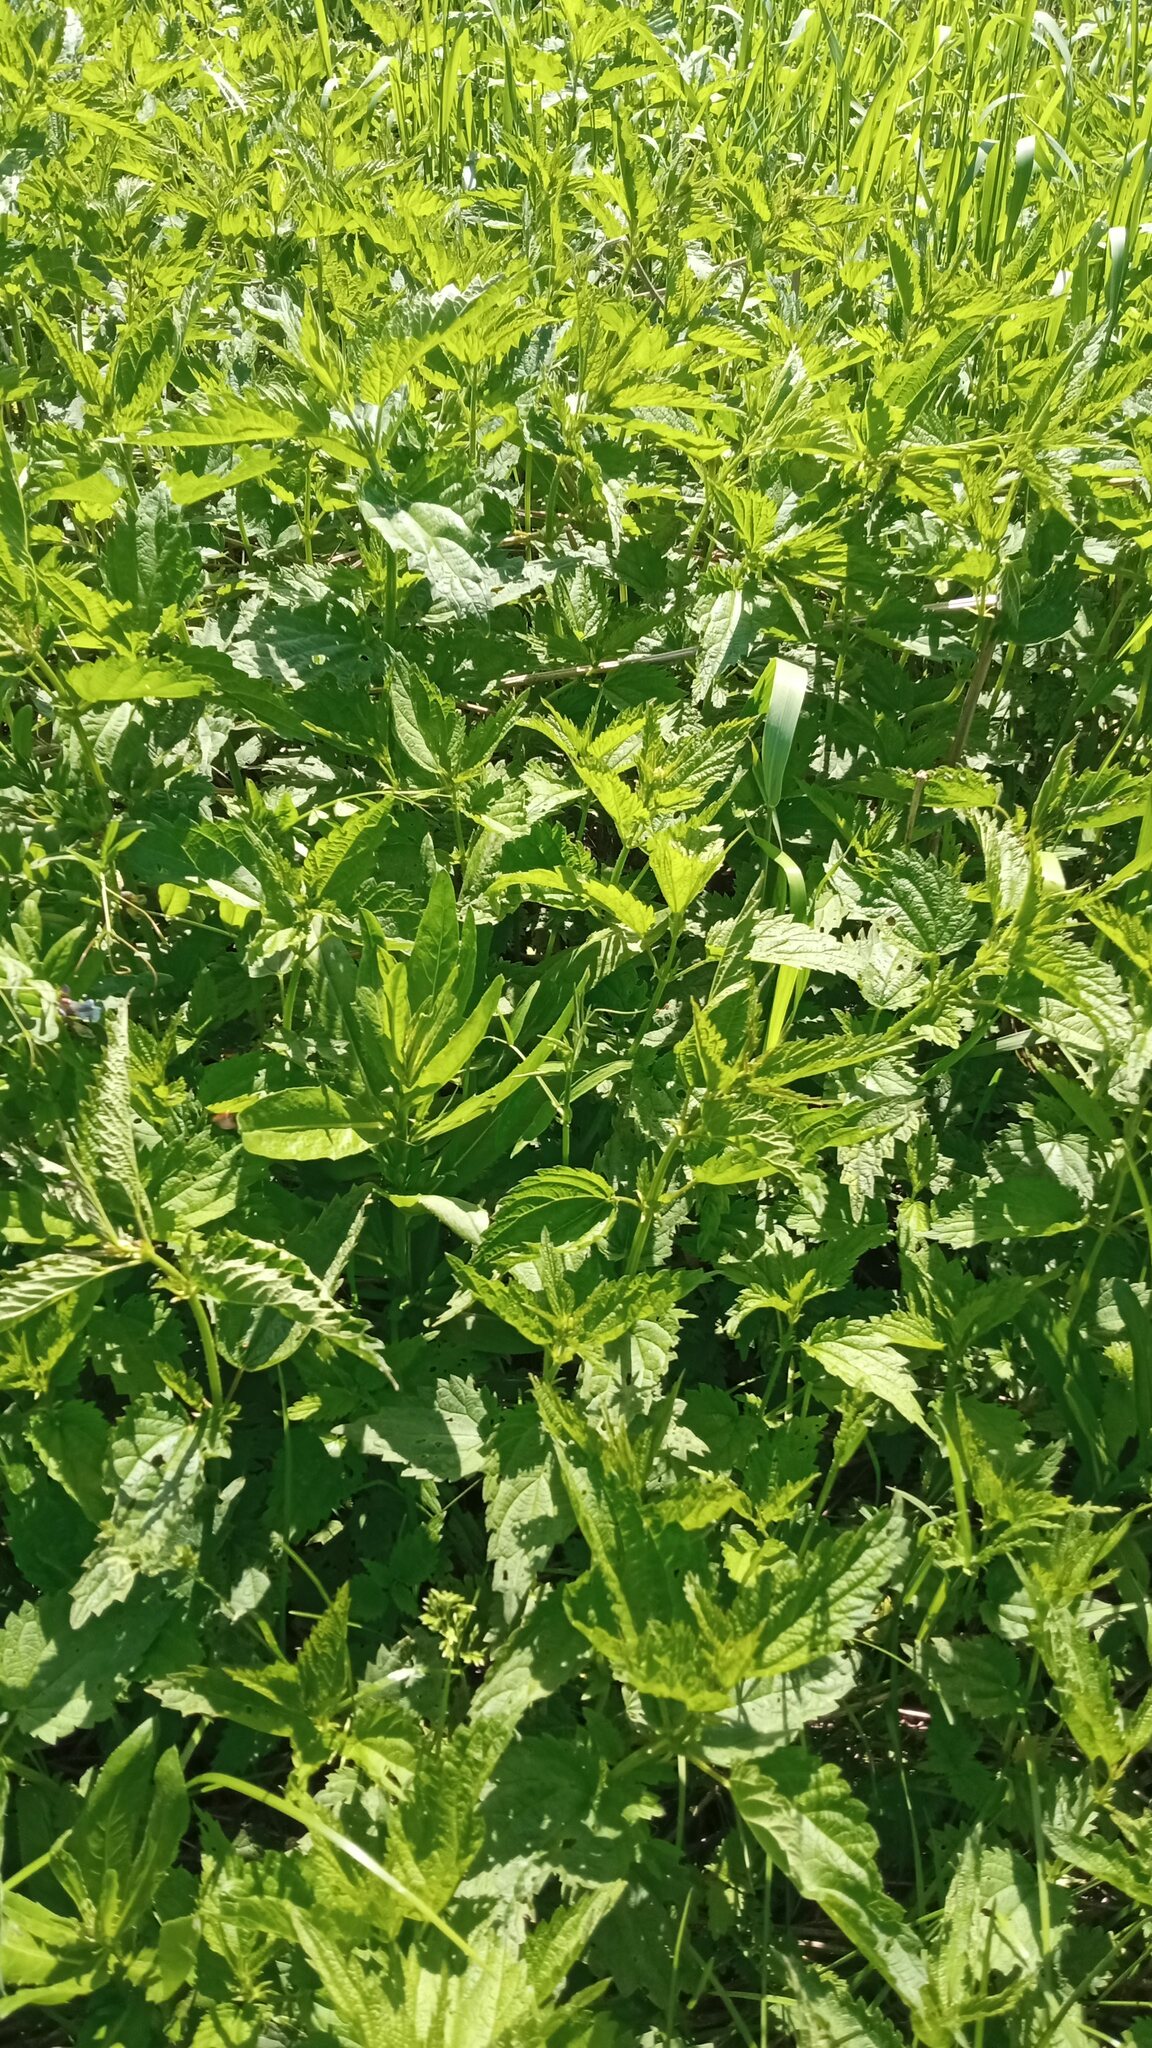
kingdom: Plantae
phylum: Tracheophyta
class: Magnoliopsida
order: Rosales
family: Urticaceae
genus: Urtica
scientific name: Urtica dioica
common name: Common nettle
